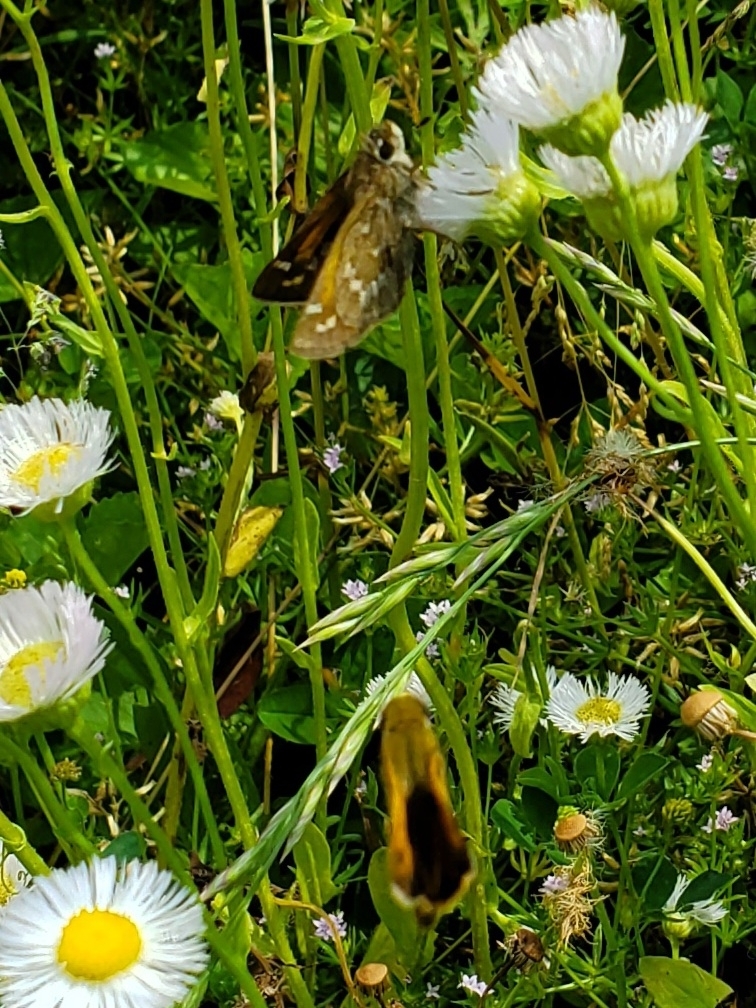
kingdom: Animalia
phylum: Arthropoda
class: Insecta
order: Lepidoptera
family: Hesperiidae
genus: Atalopedes
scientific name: Atalopedes
